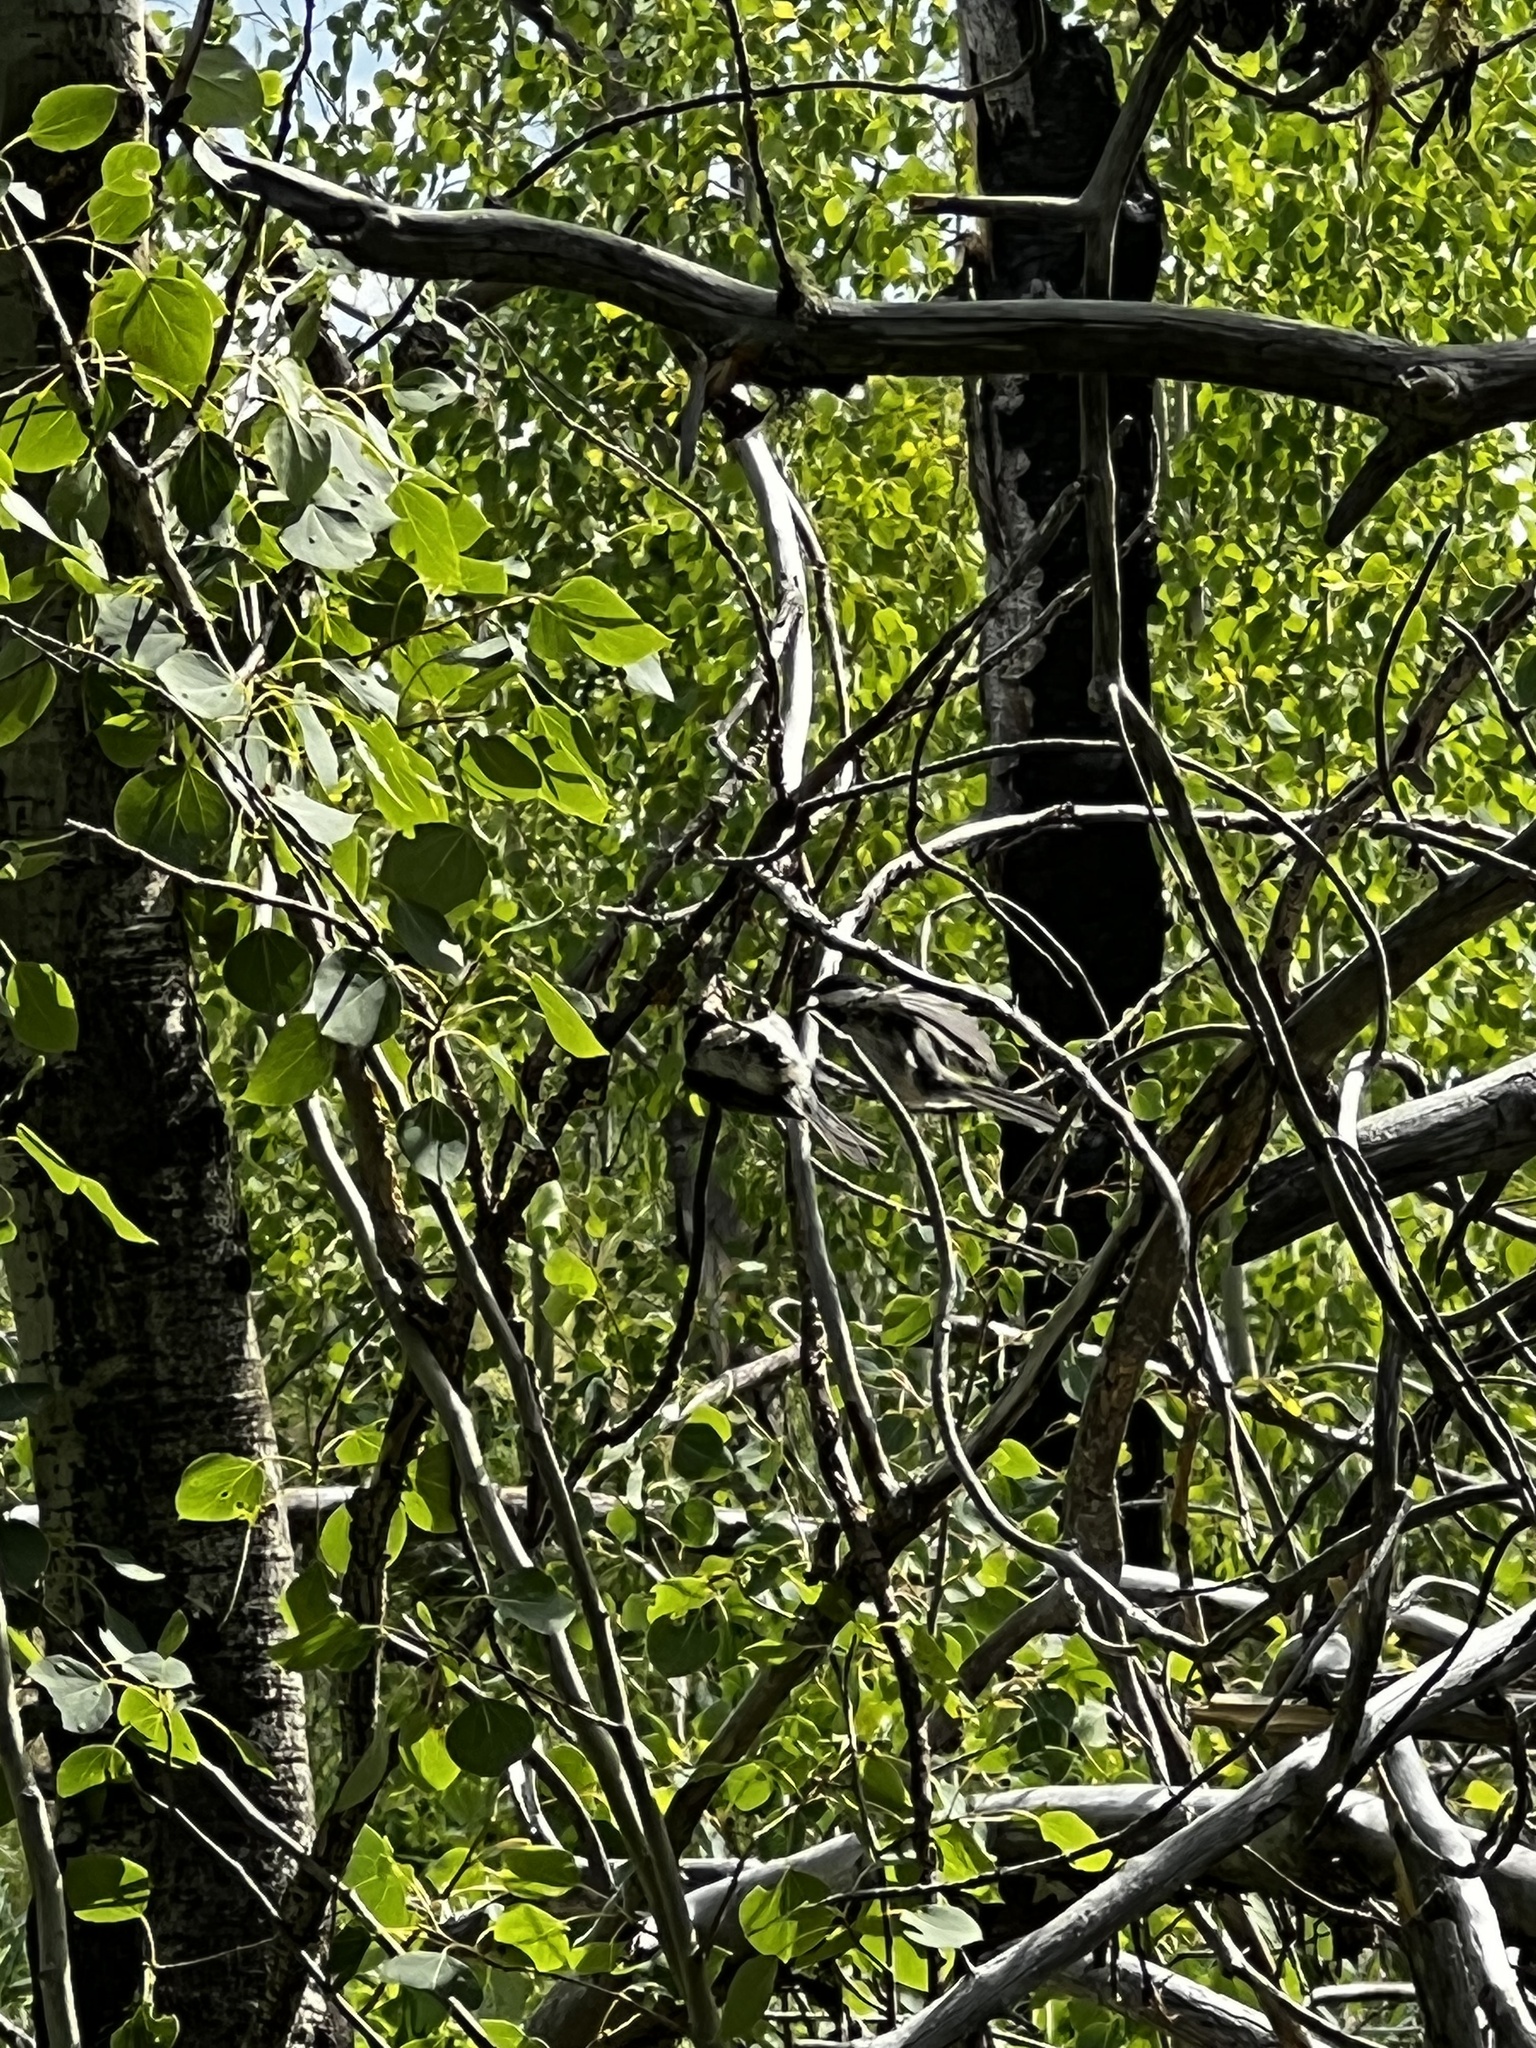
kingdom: Animalia
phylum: Chordata
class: Aves
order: Passeriformes
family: Paridae
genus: Poecile
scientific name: Poecile atricapillus
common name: Black-capped chickadee
